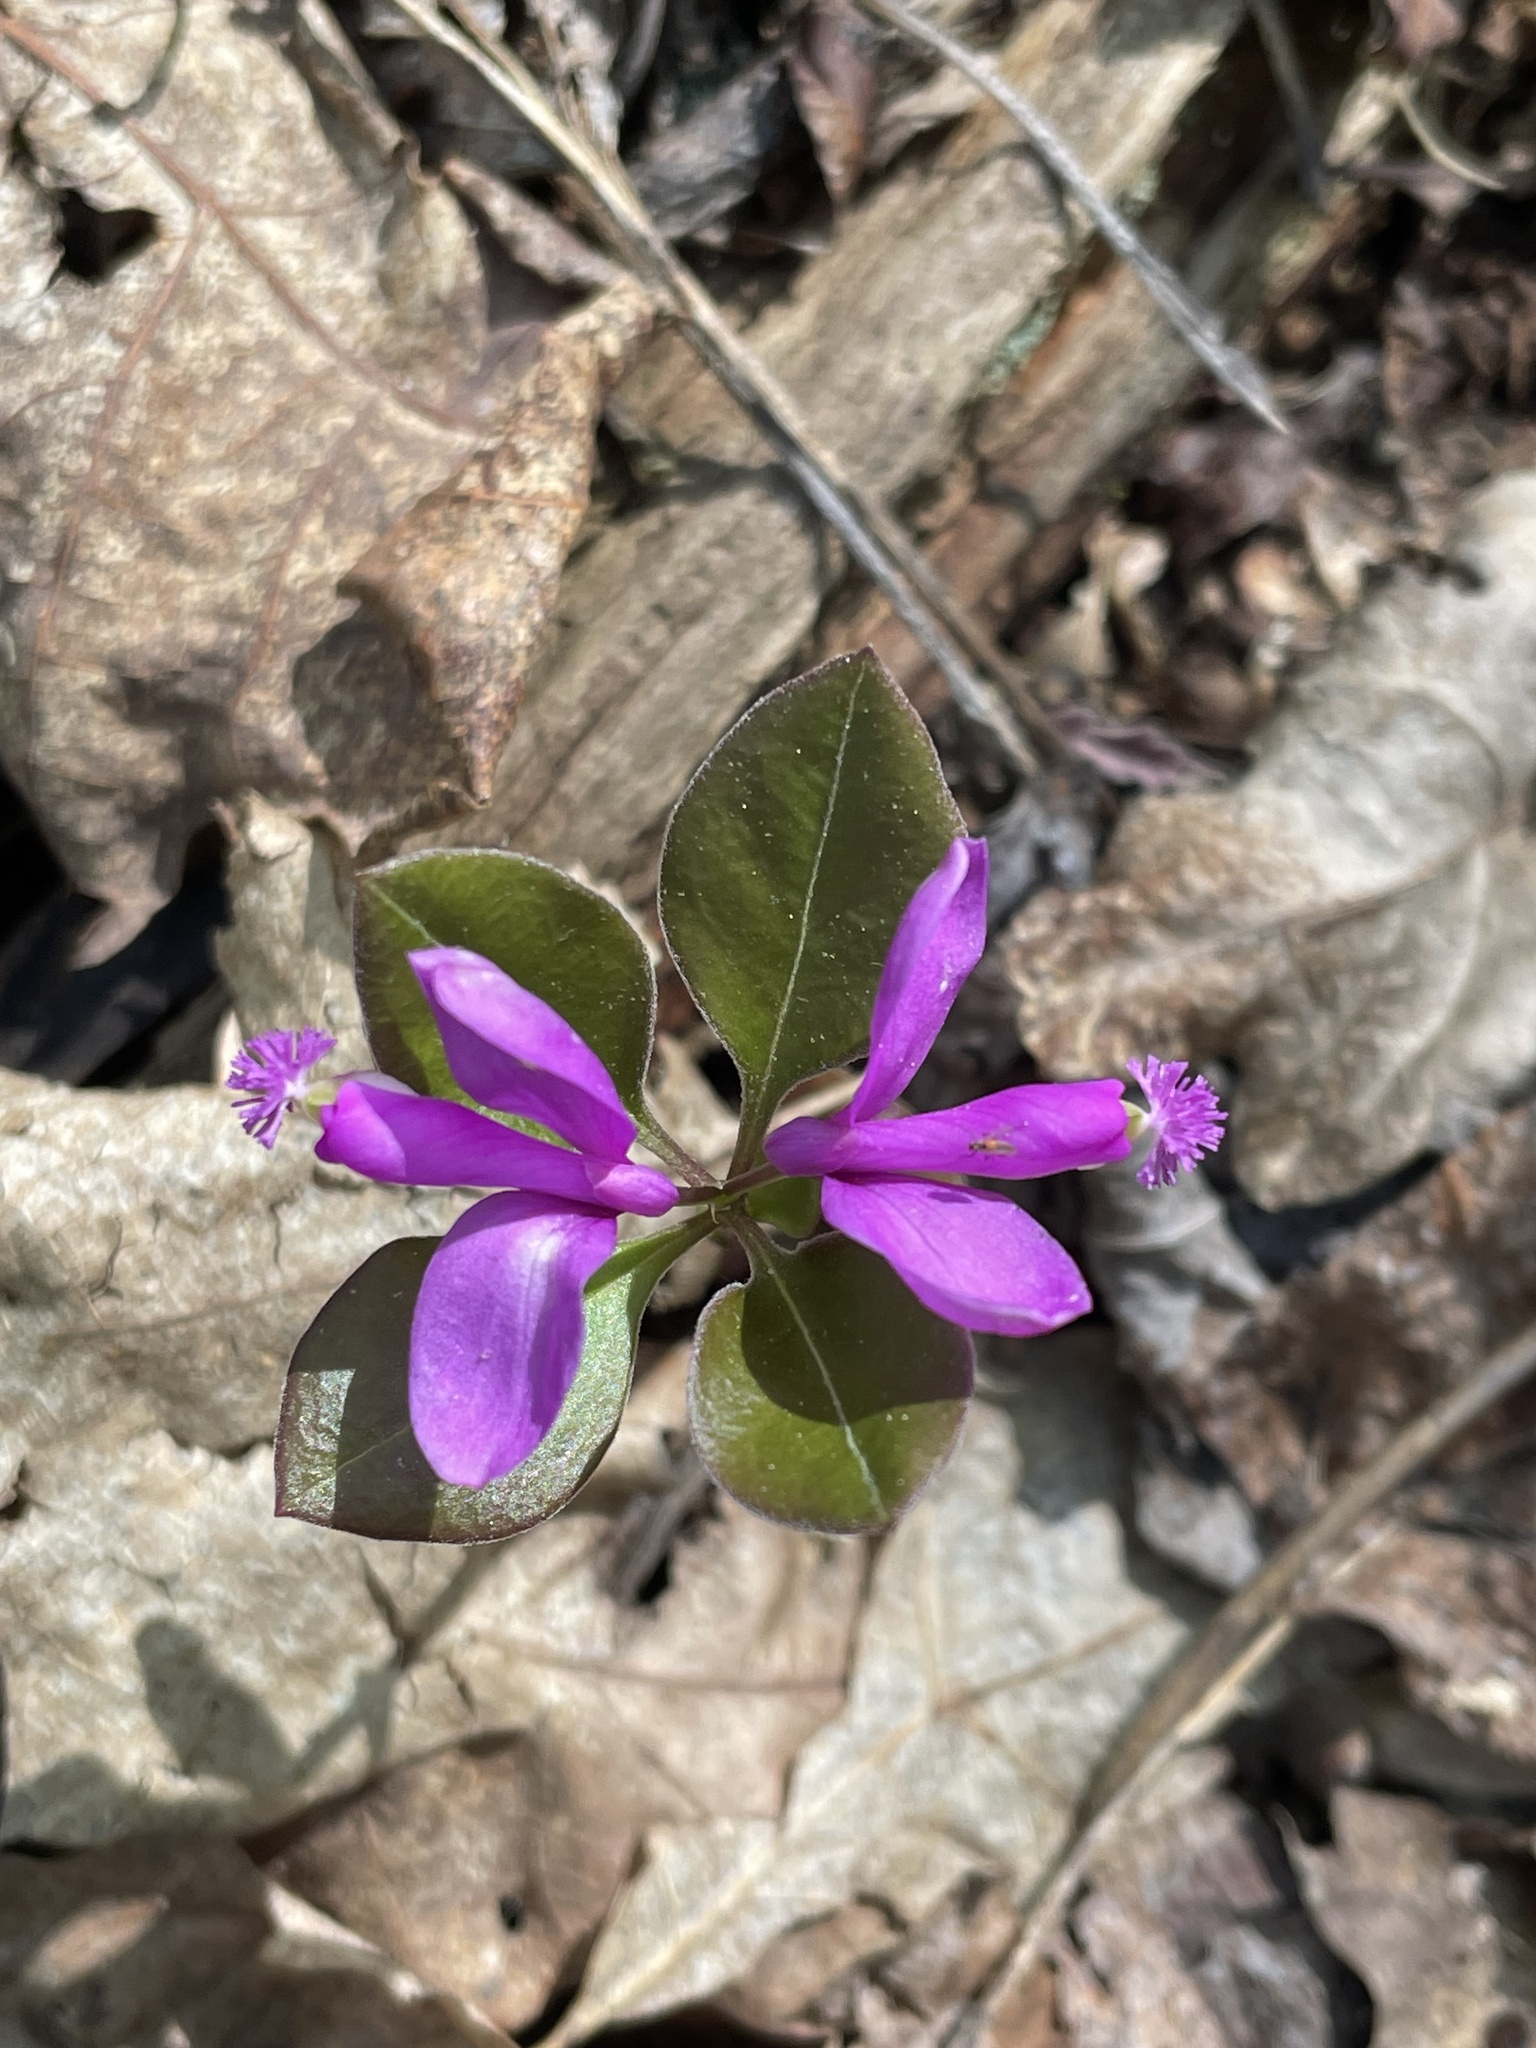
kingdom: Plantae
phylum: Tracheophyta
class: Magnoliopsida
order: Fabales
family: Polygalaceae
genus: Polygaloides
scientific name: Polygaloides paucifolia
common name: Bird-on-the-wing
